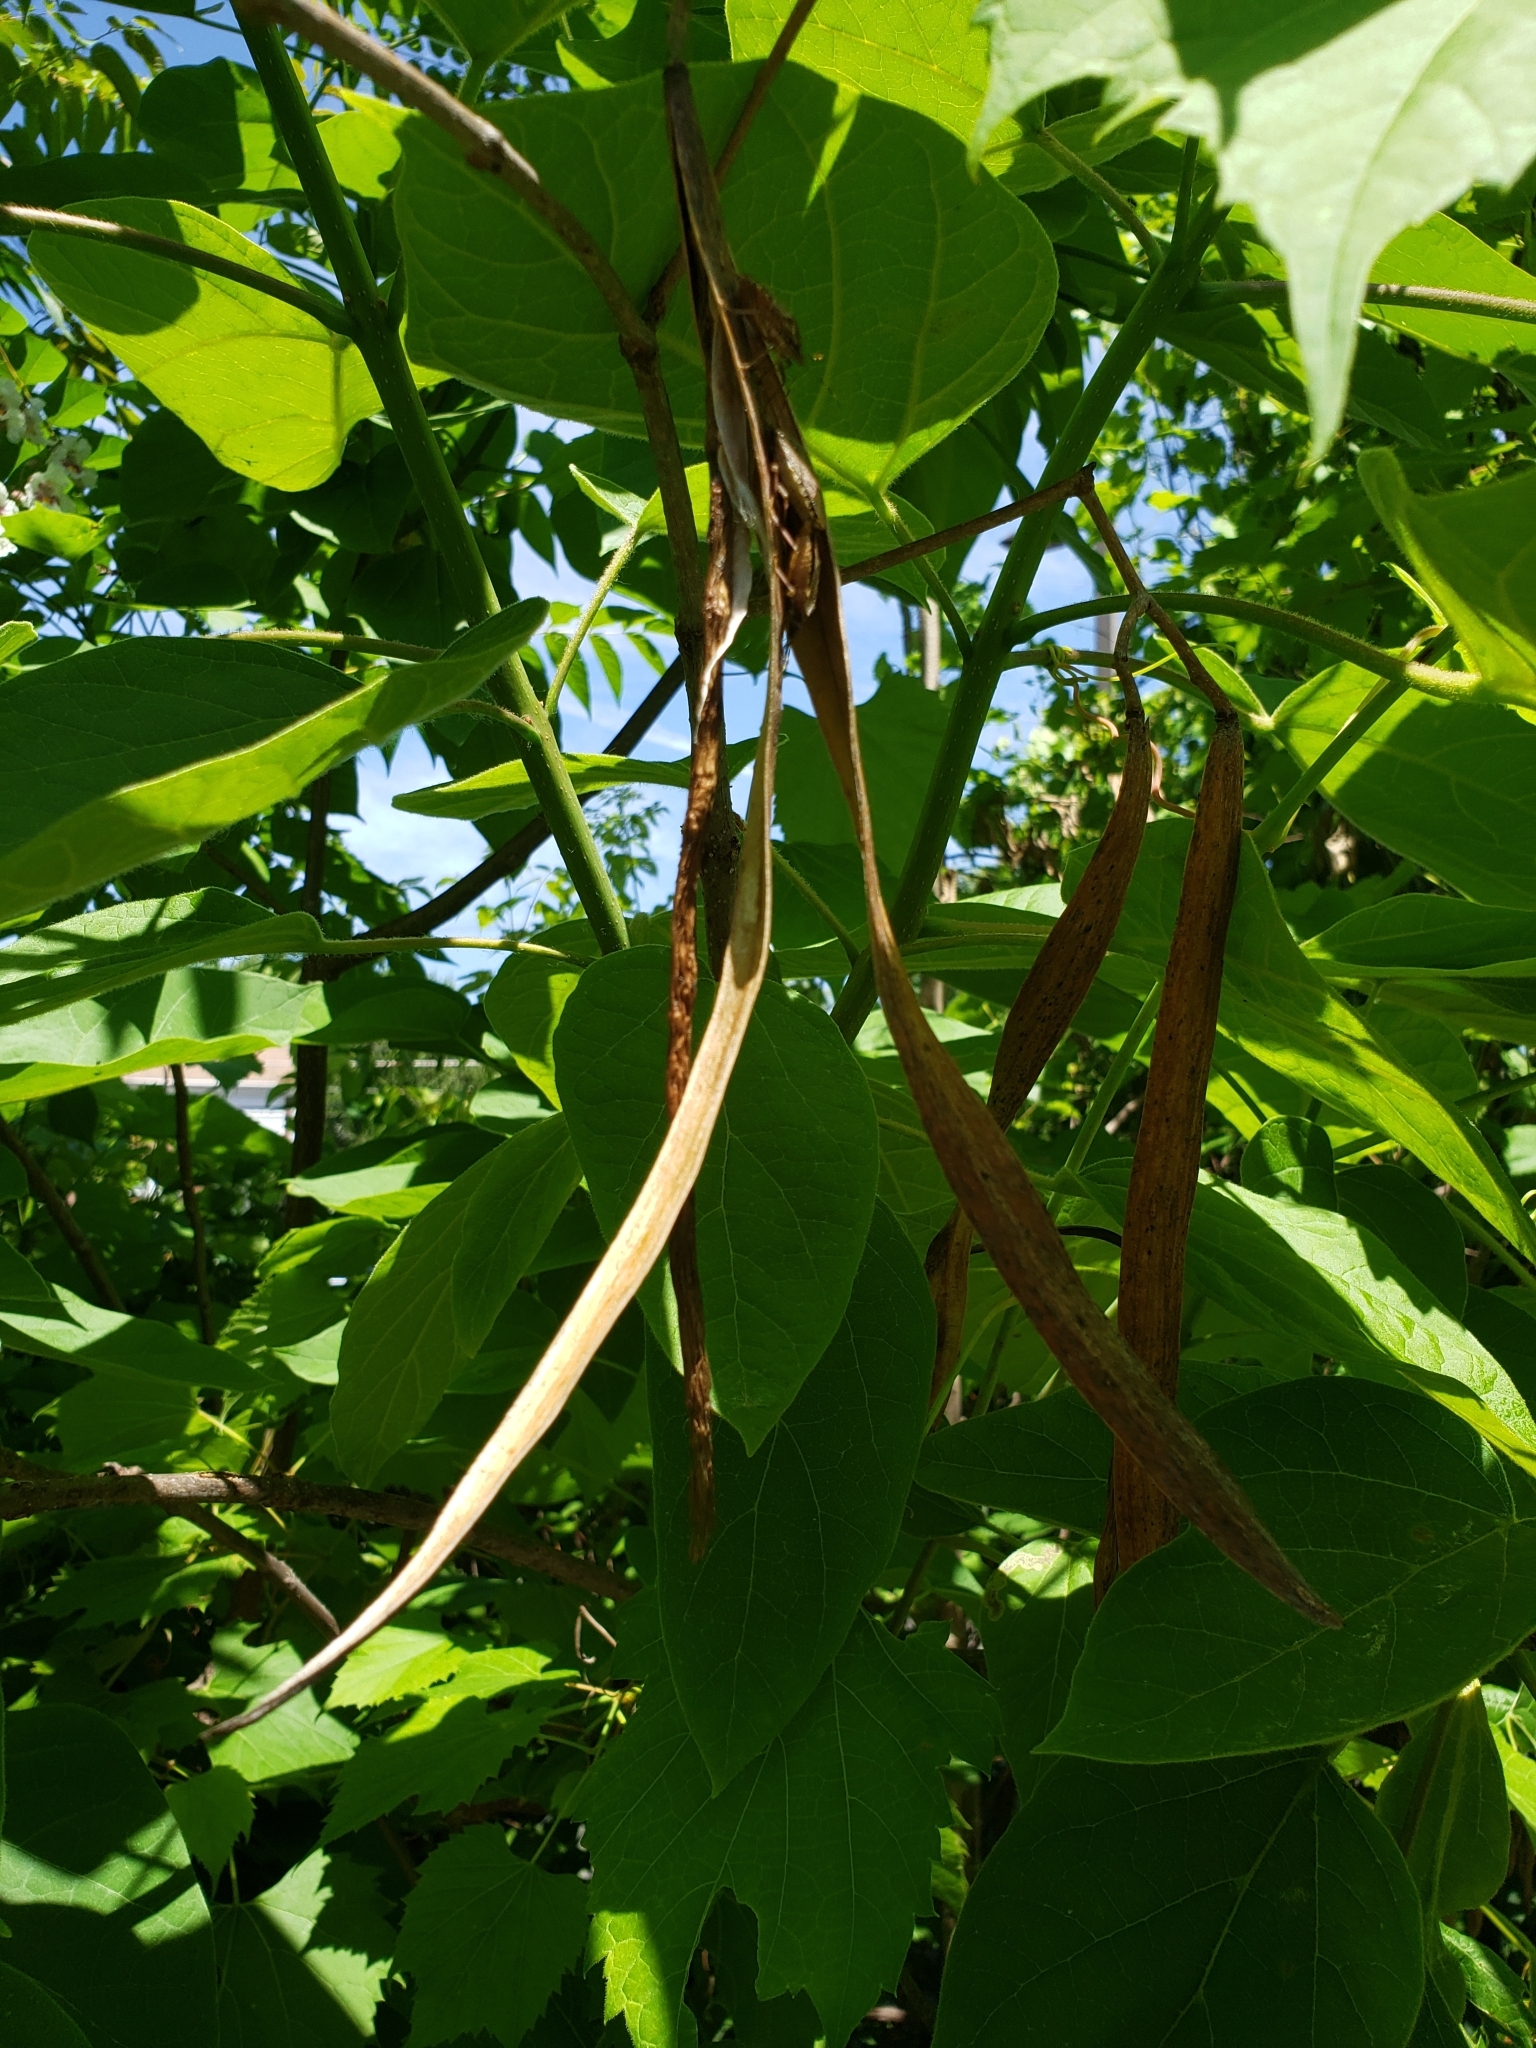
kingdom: Plantae
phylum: Tracheophyta
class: Magnoliopsida
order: Lamiales
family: Bignoniaceae
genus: Catalpa
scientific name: Catalpa speciosa
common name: Northern catalpa
